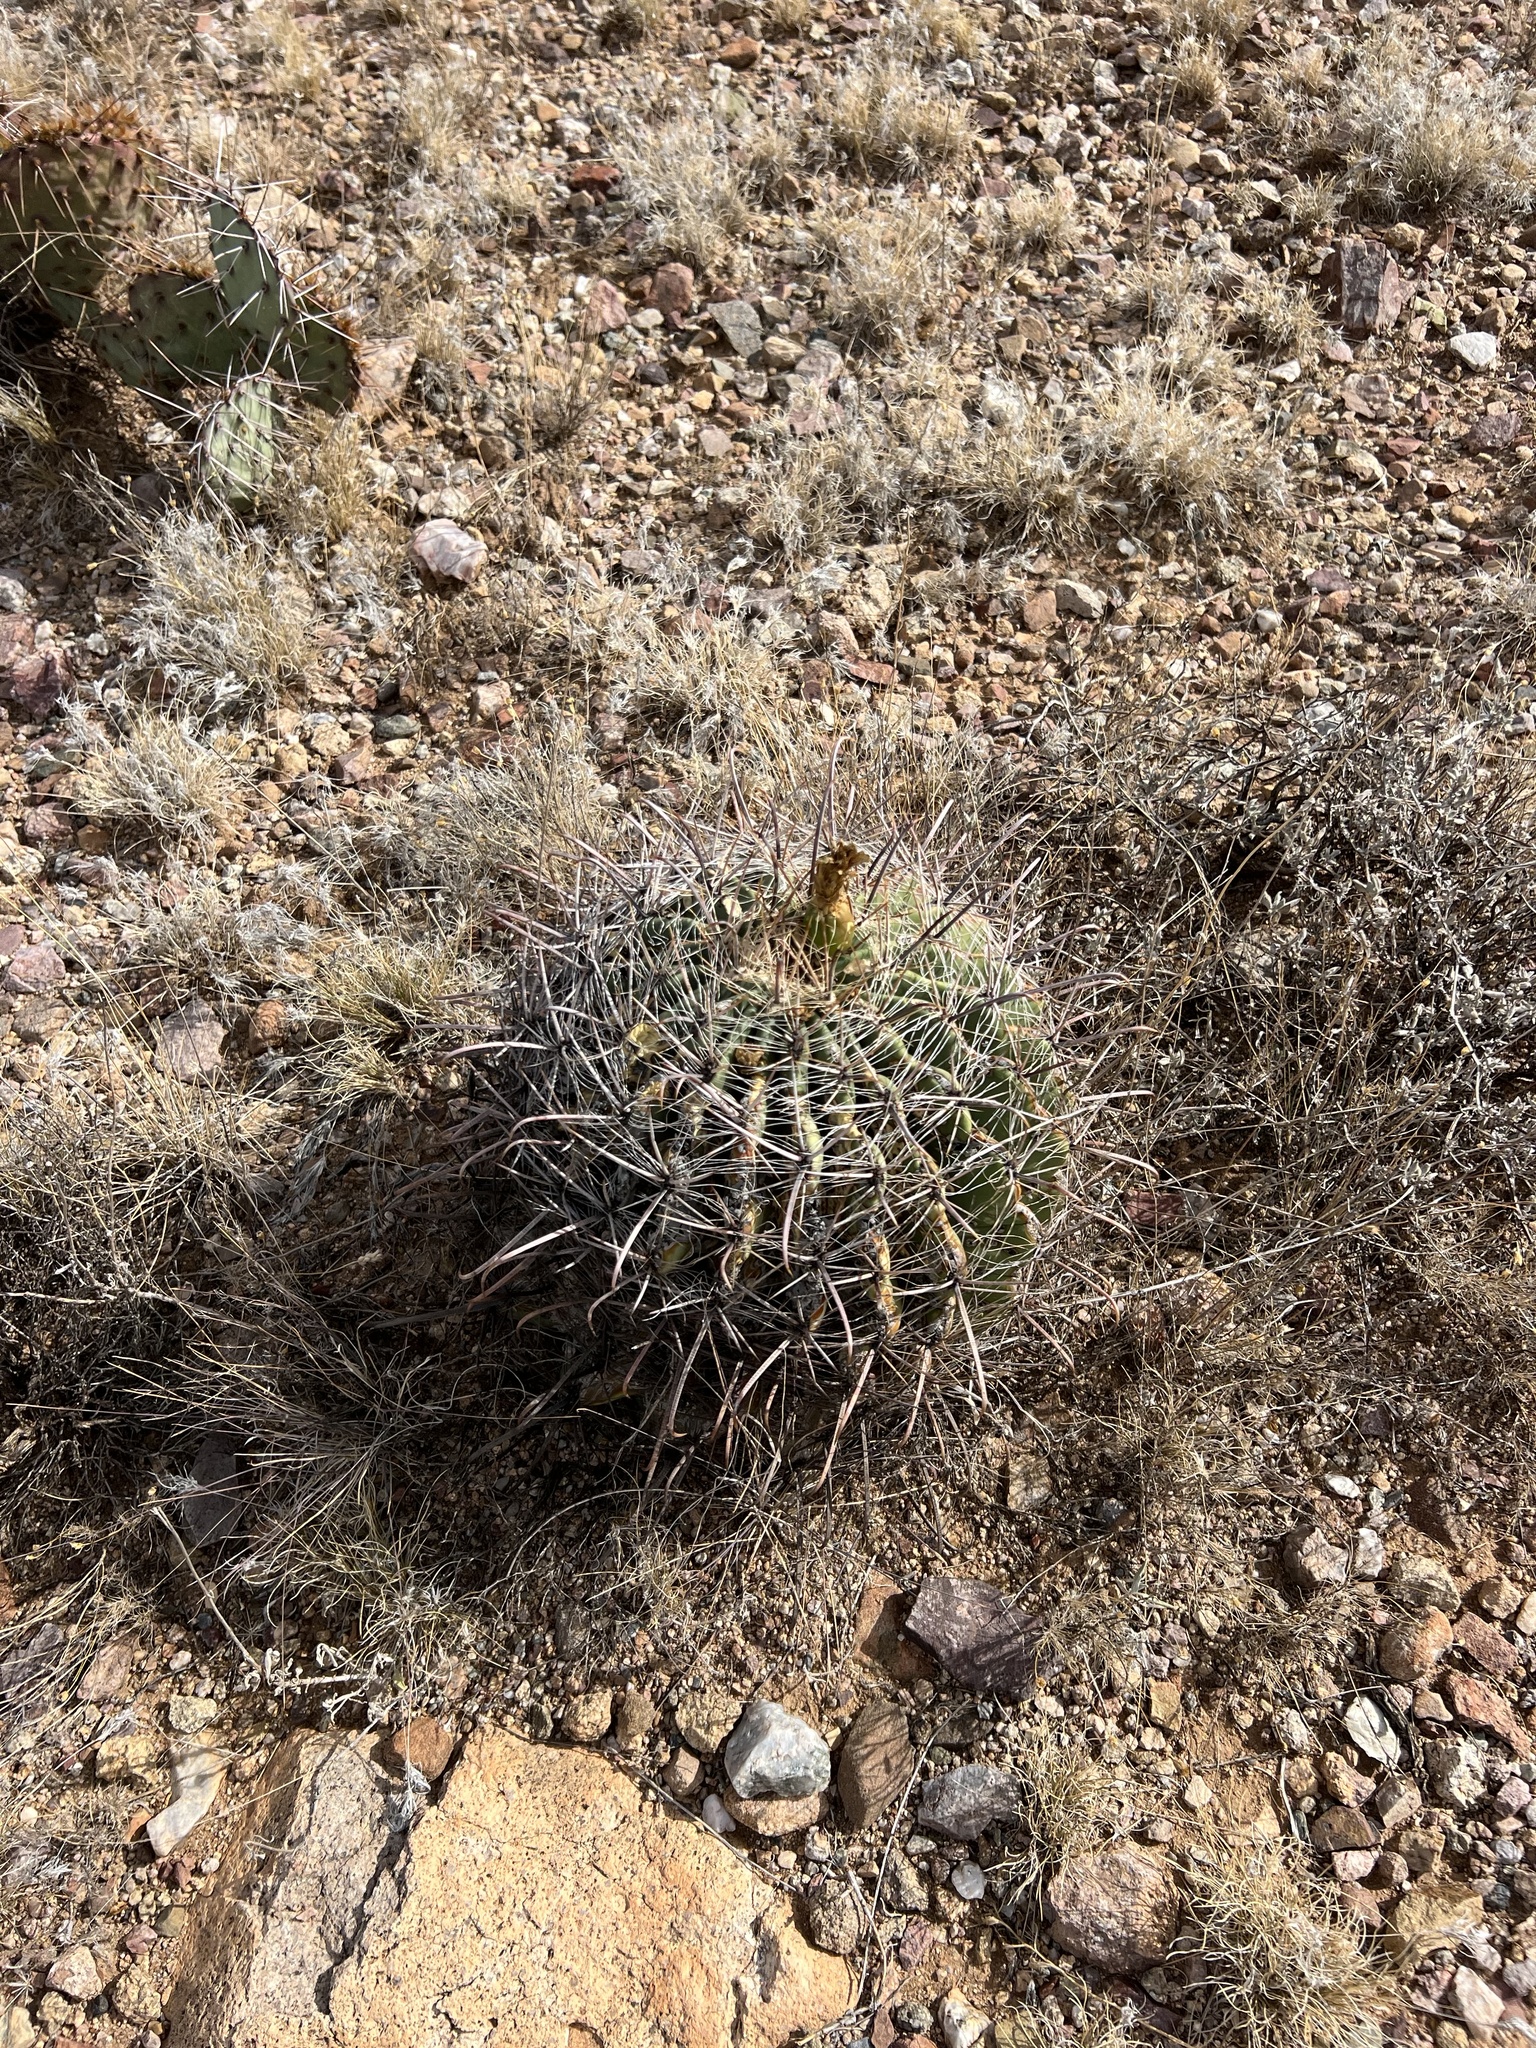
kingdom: Plantae
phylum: Tracheophyta
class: Magnoliopsida
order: Caryophyllales
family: Cactaceae
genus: Ferocactus
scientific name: Ferocactus wislizeni
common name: Candy barrel cactus
